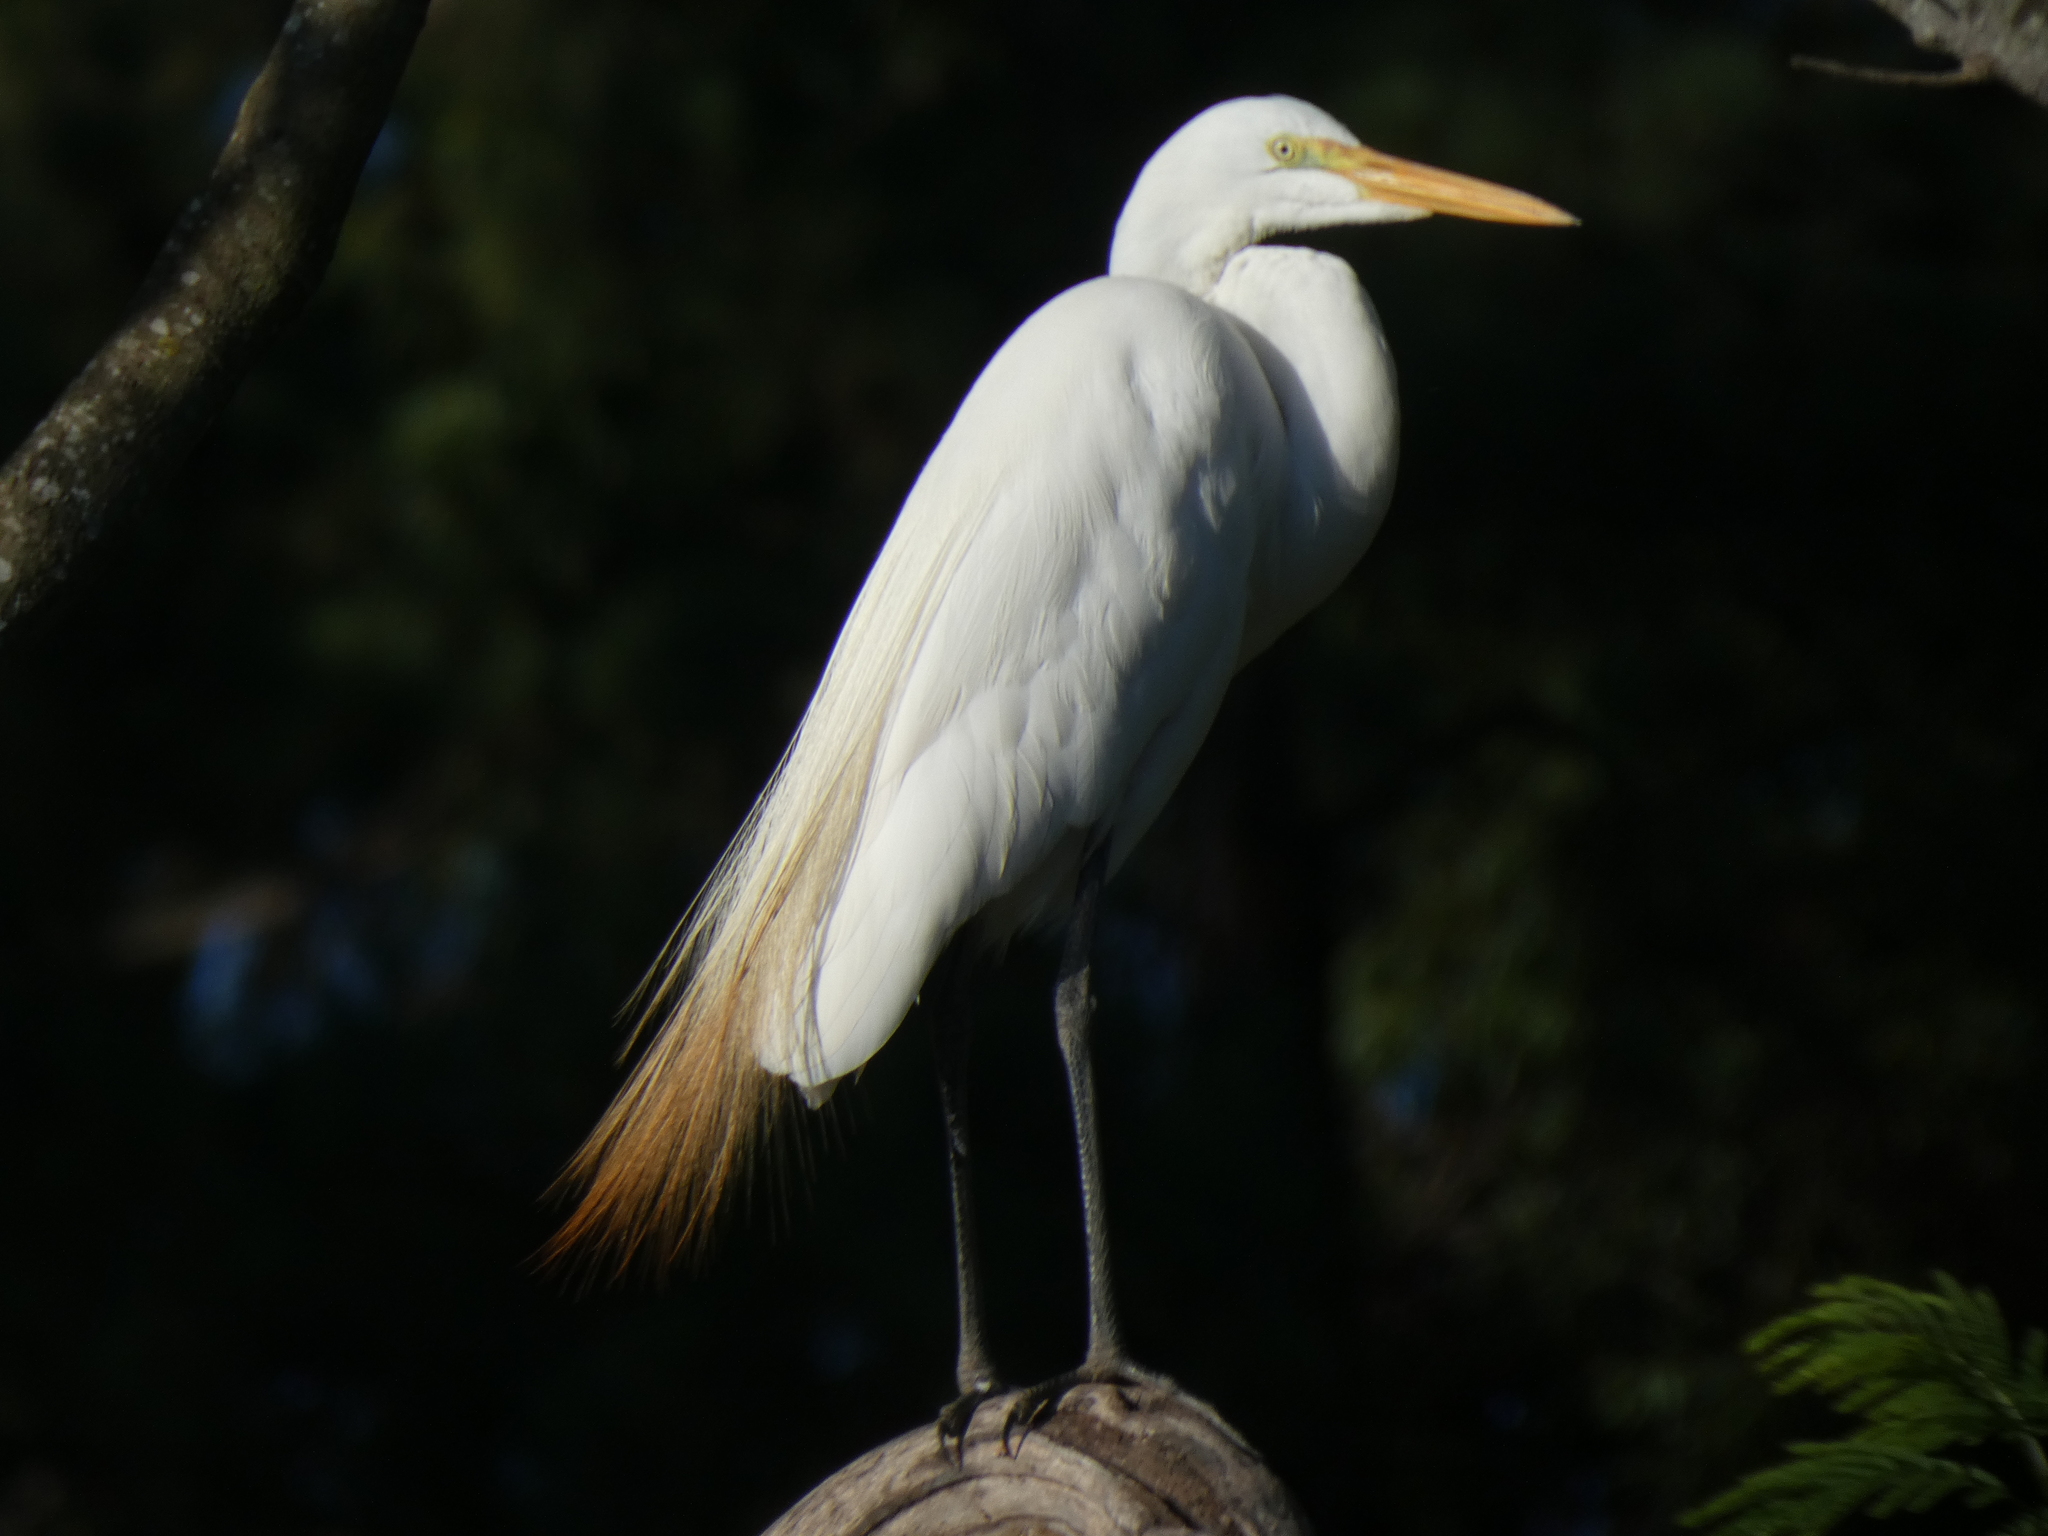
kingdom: Animalia
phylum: Chordata
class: Aves
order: Pelecaniformes
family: Ardeidae
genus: Ardea
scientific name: Ardea alba
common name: Great egret
